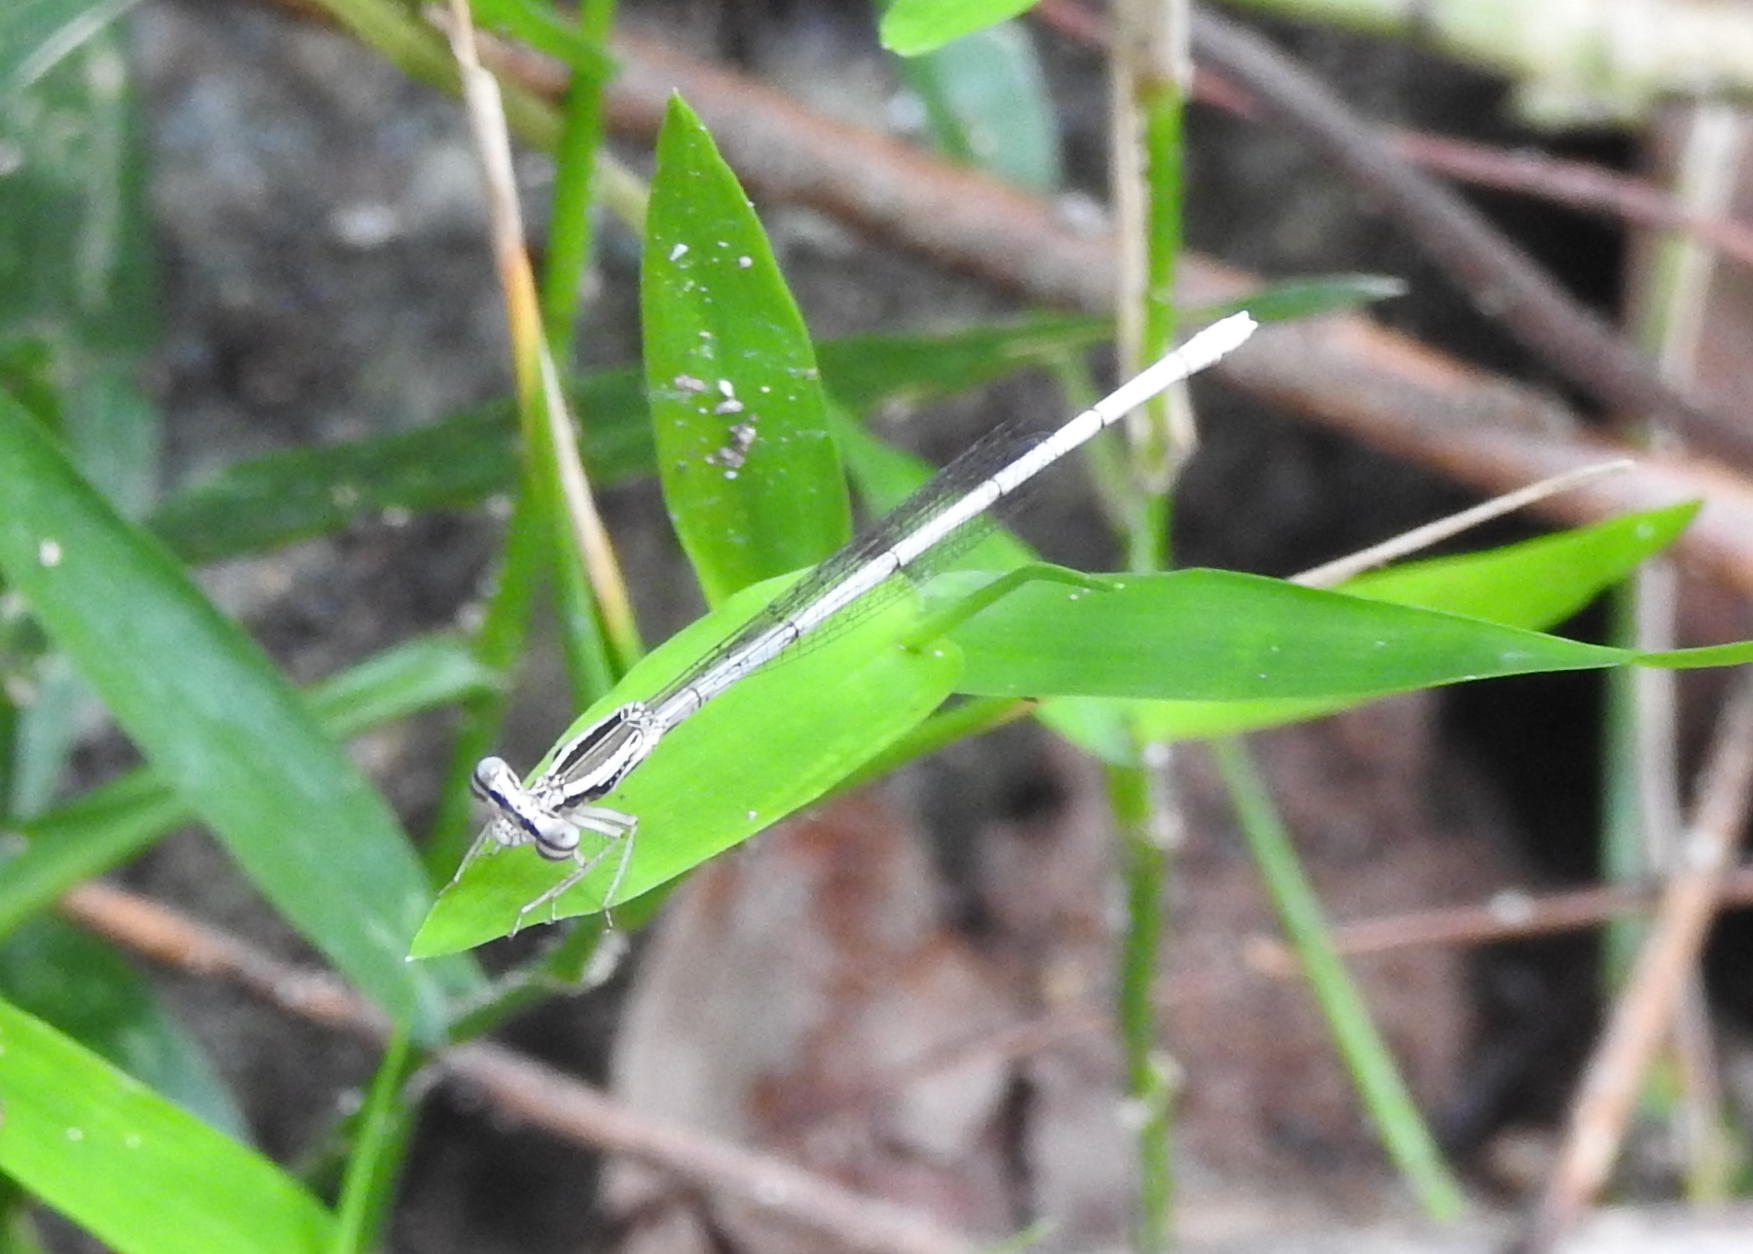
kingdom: Animalia
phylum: Arthropoda
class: Insecta
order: Odonata
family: Platycnemididae
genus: Copera
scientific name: Copera marginipes
